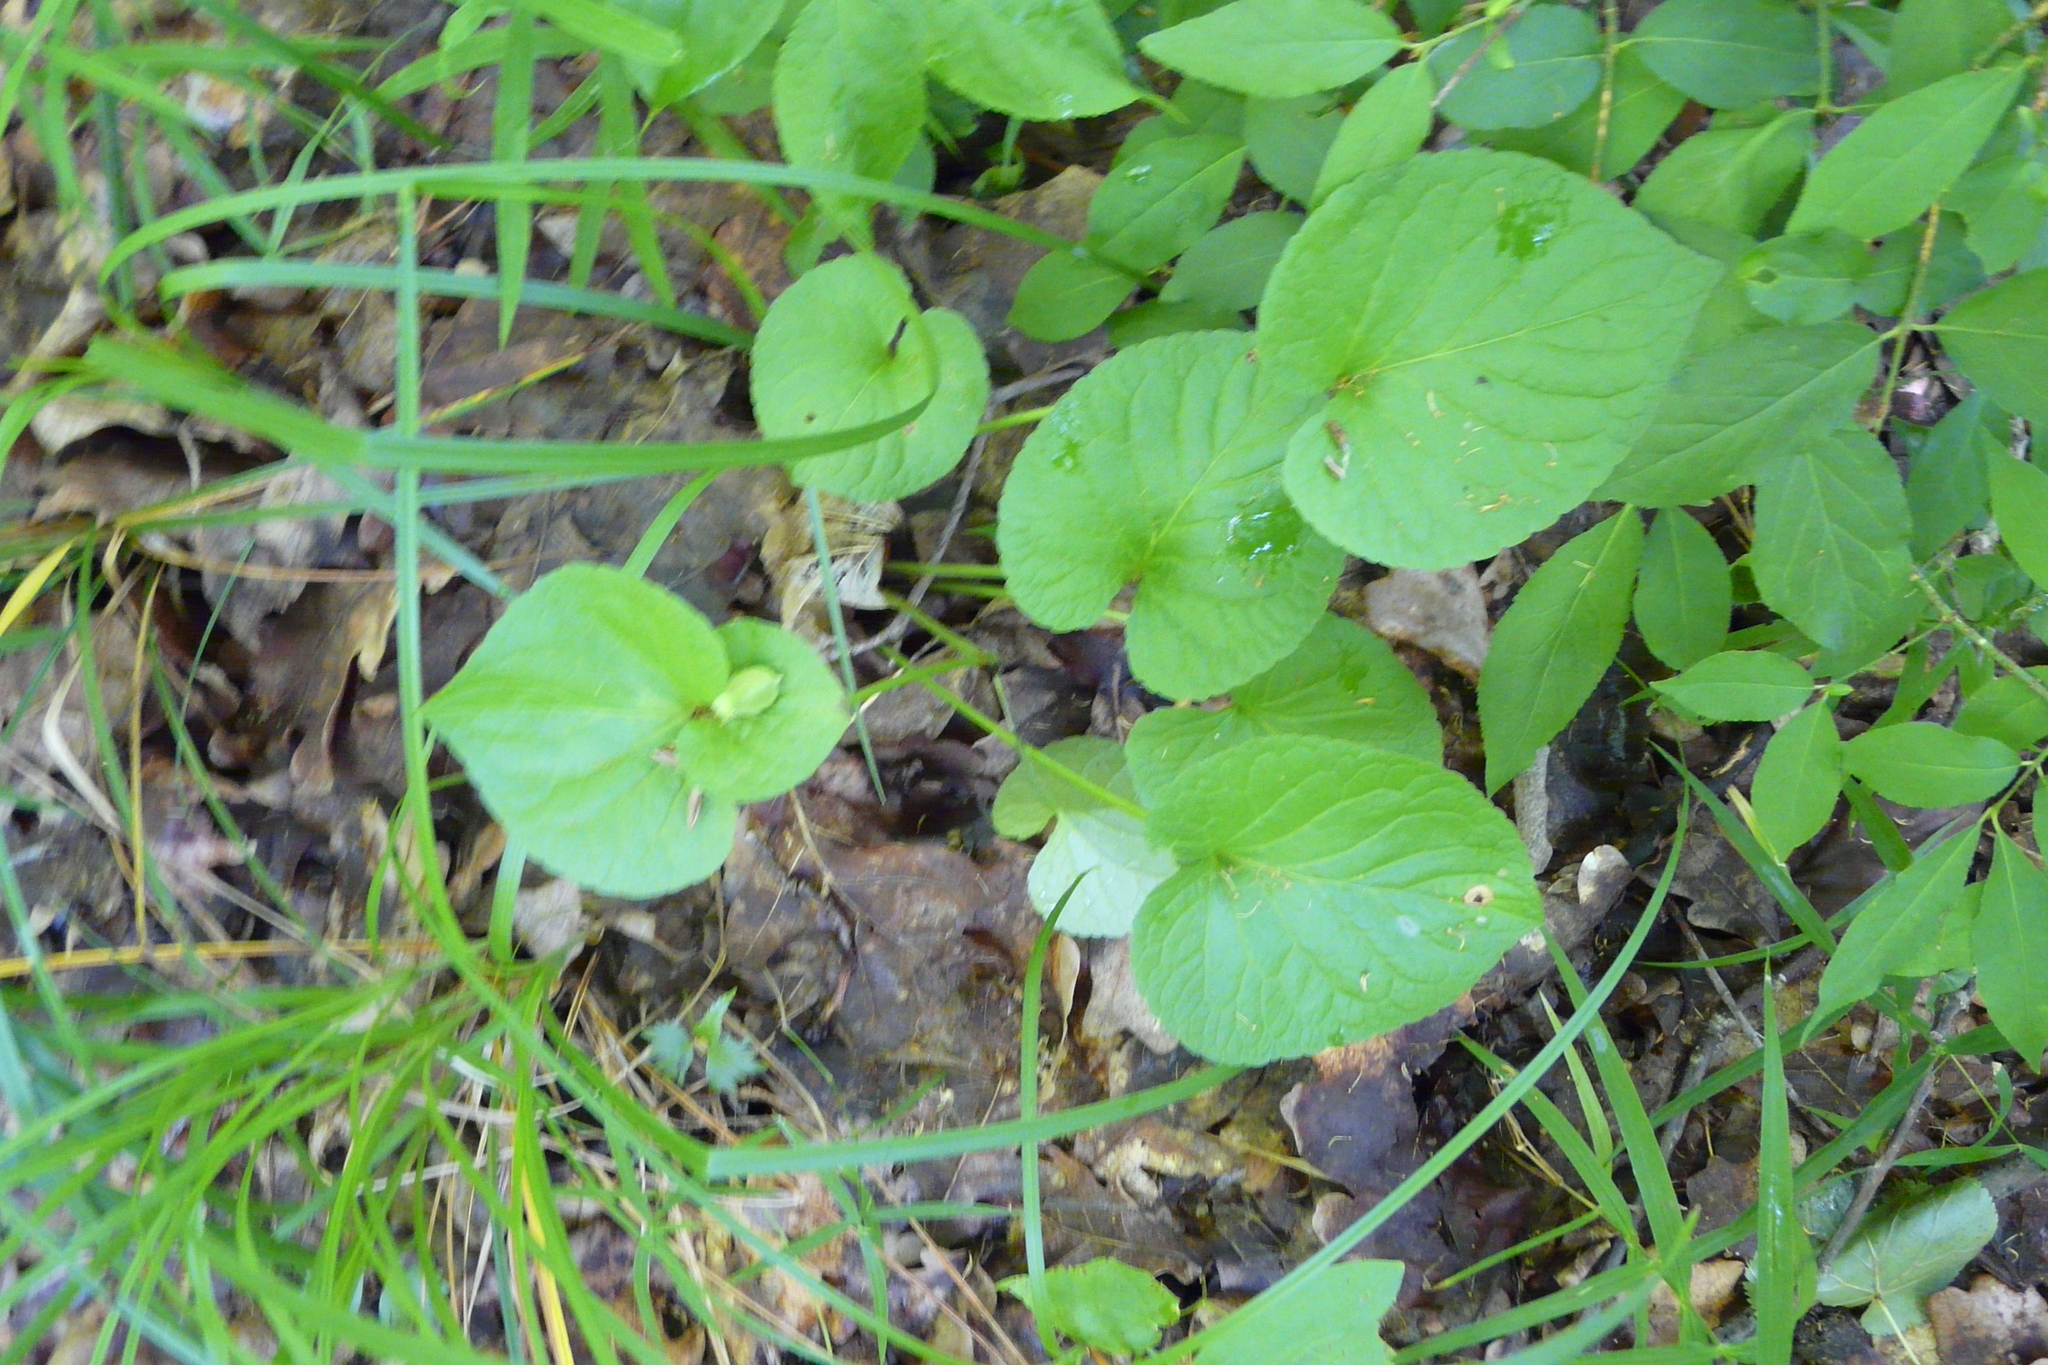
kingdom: Plantae
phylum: Tracheophyta
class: Magnoliopsida
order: Malpighiales
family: Violaceae
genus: Viola
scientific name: Viola mirabilis
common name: Wonder violet
